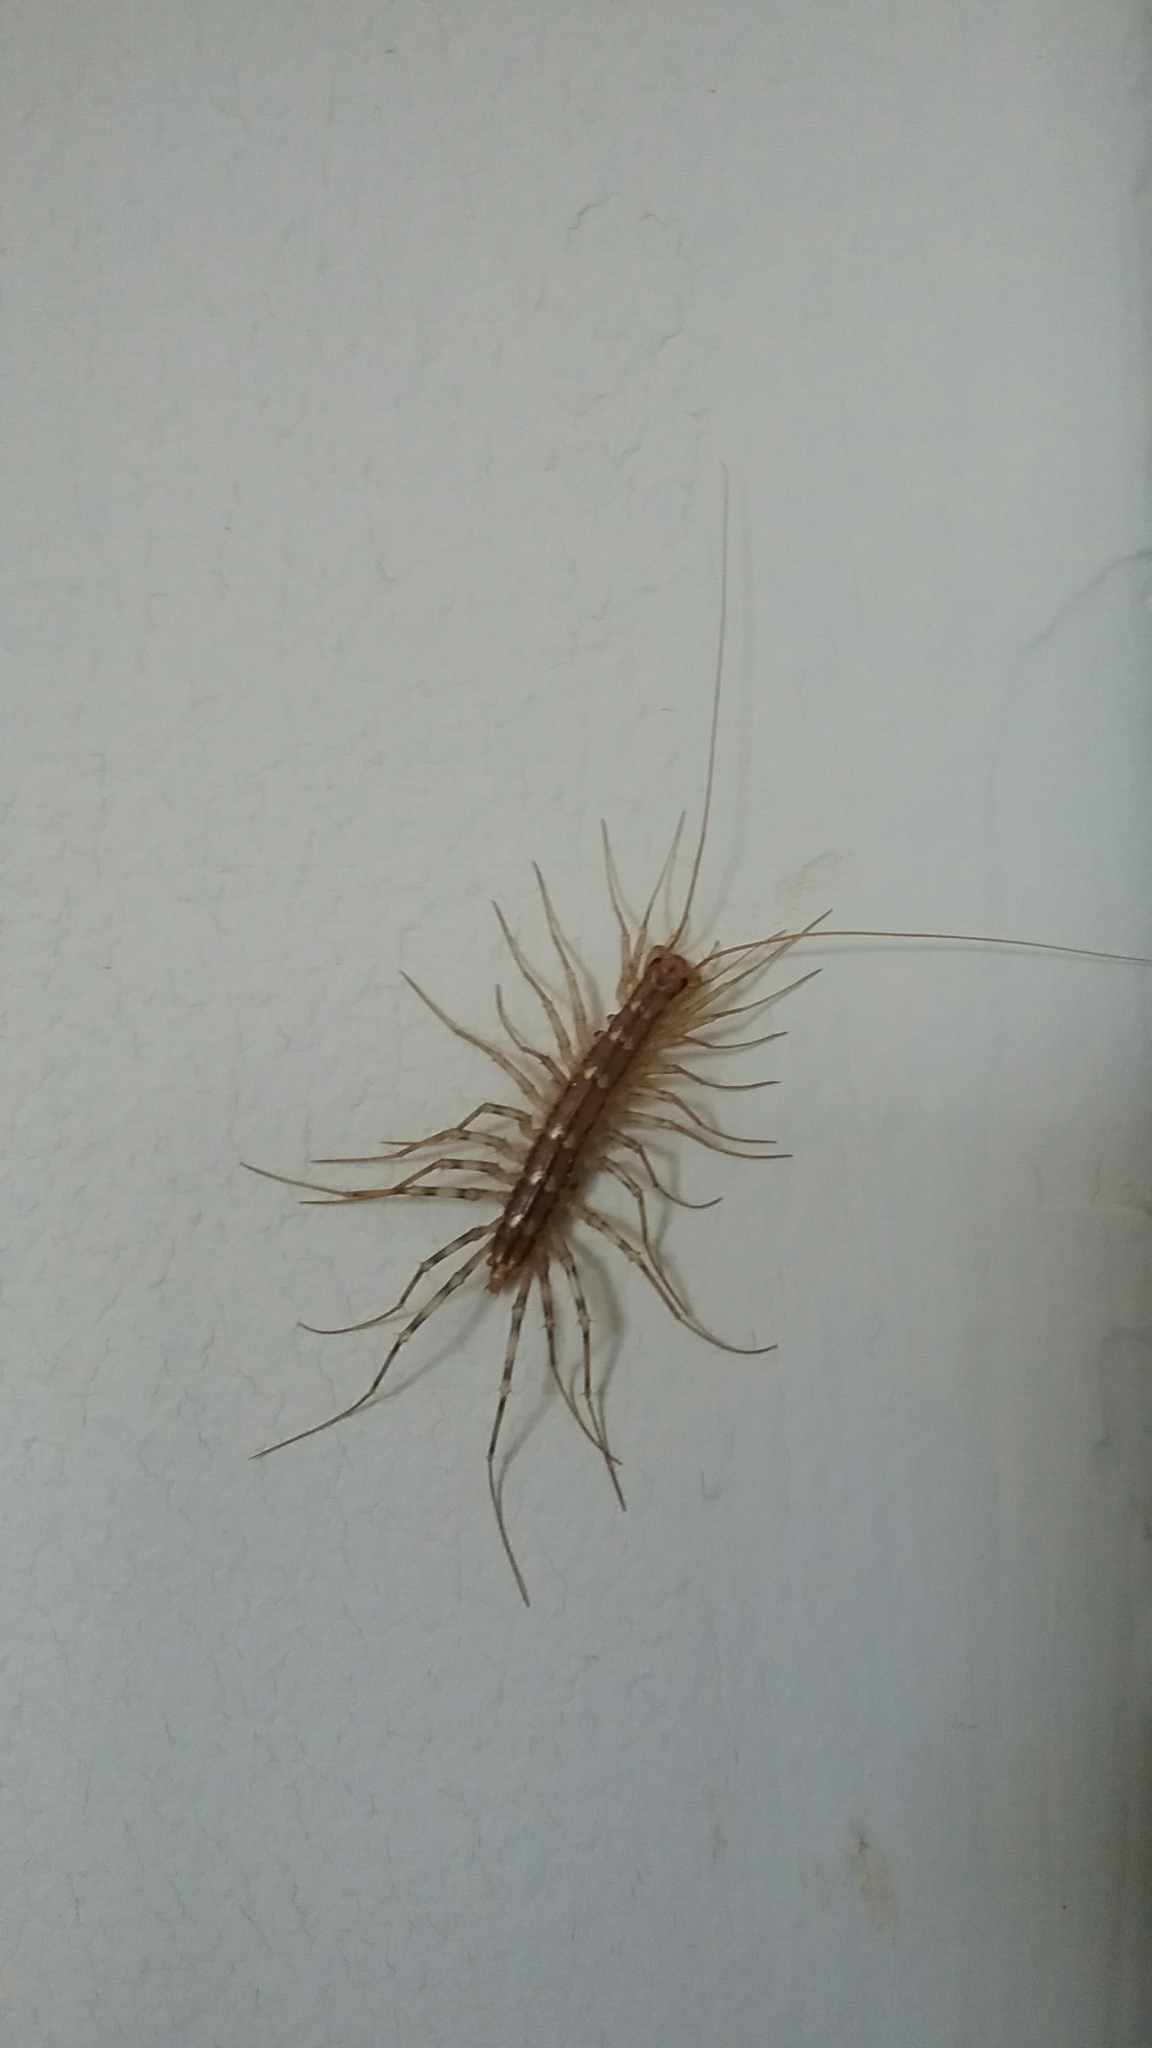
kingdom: Animalia
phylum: Arthropoda
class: Chilopoda
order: Scutigeromorpha
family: Scutigeridae
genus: Scutigera
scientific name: Scutigera coleoptrata
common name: House centipede
